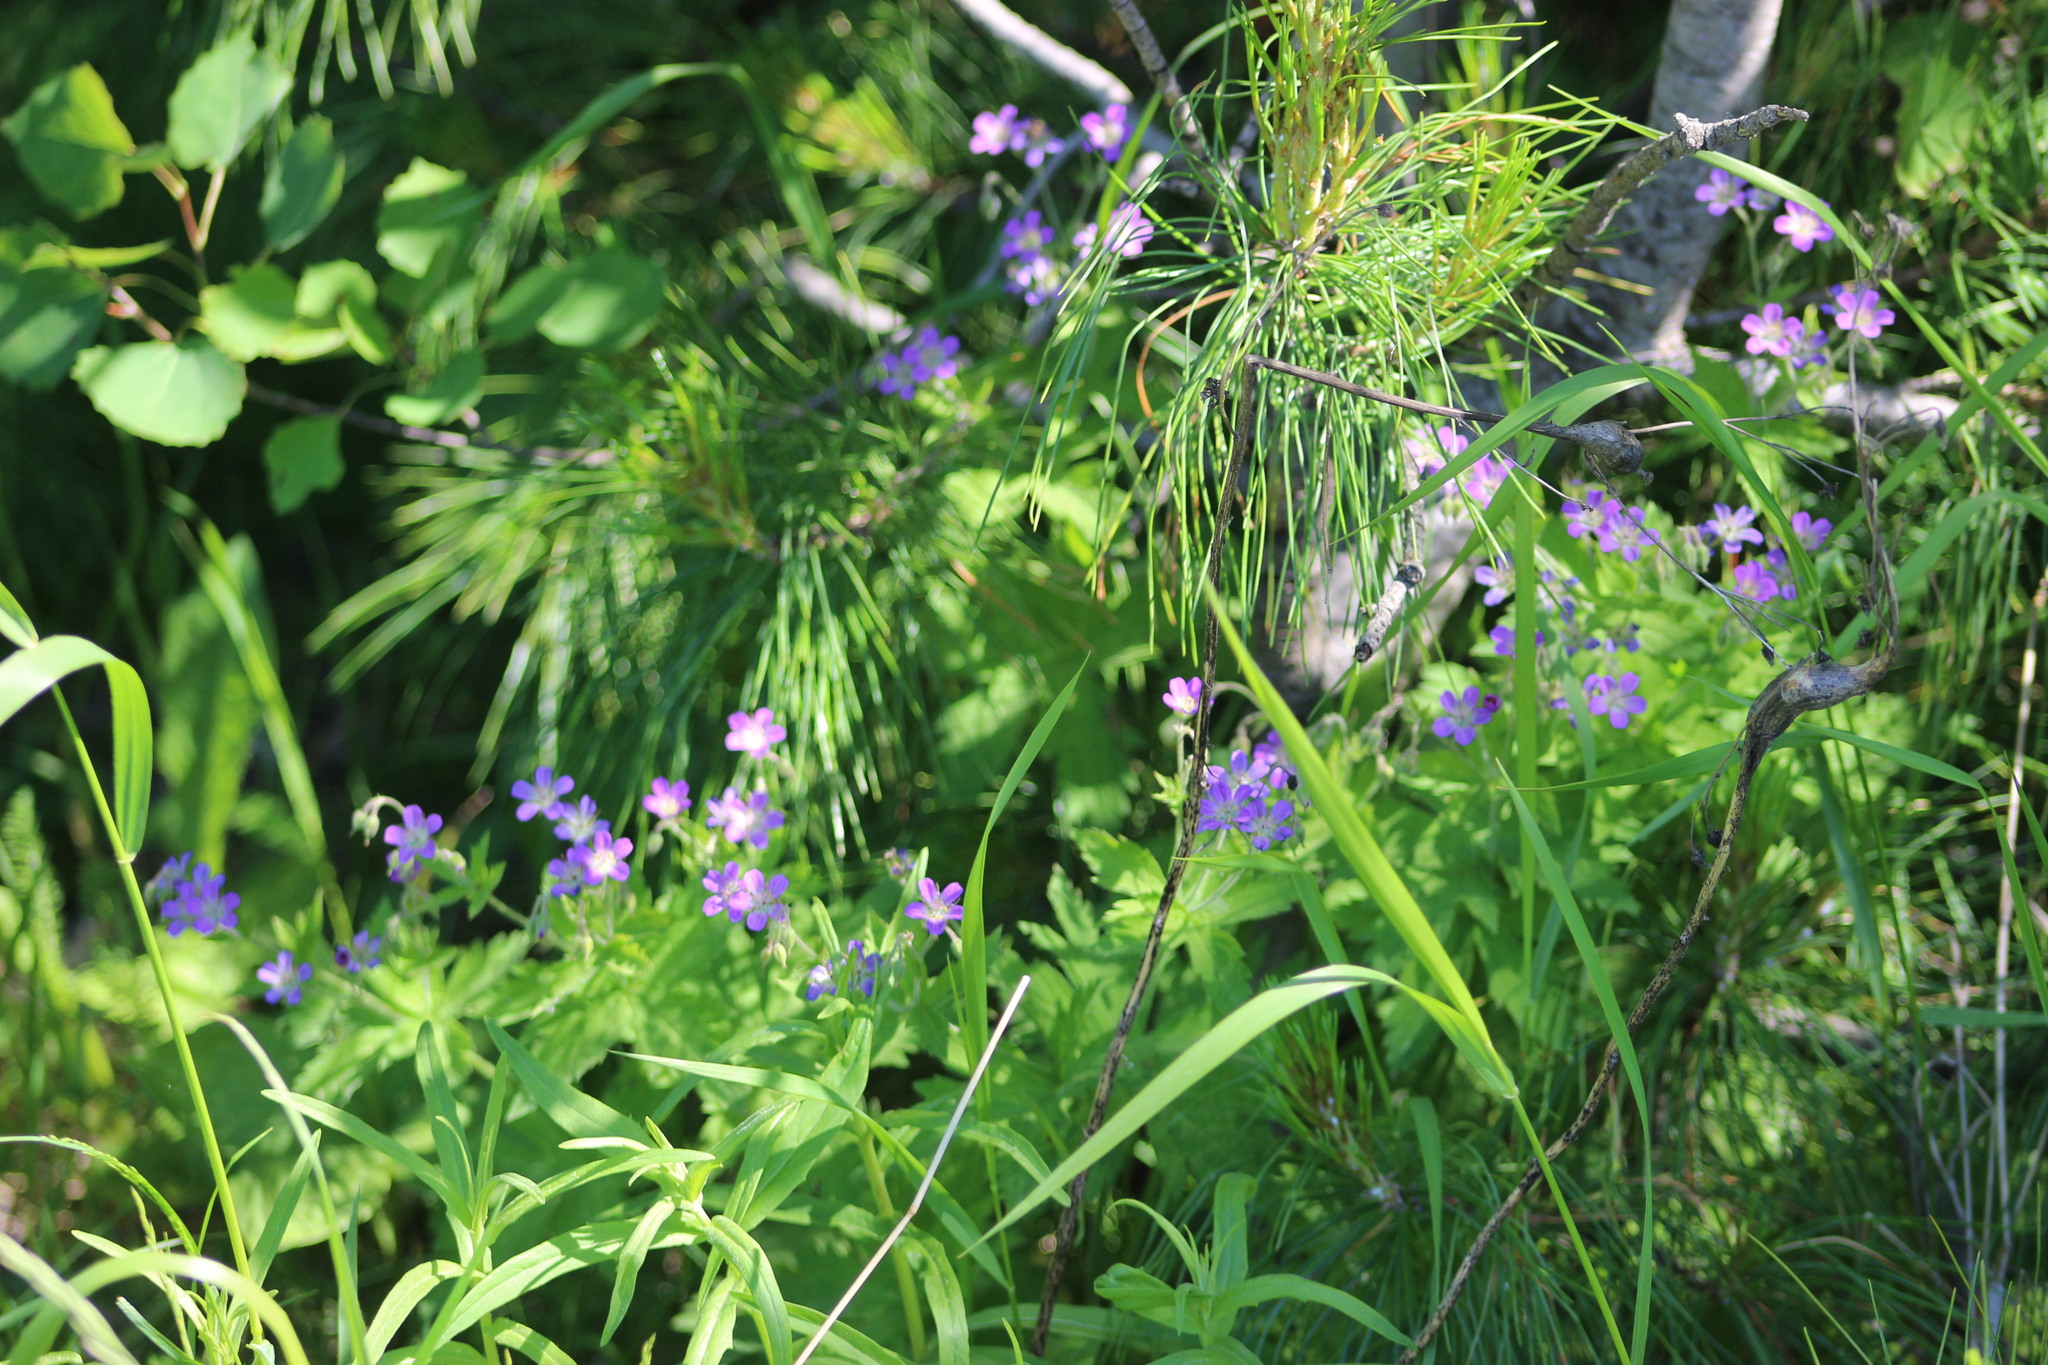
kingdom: Plantae
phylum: Tracheophyta
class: Magnoliopsida
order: Geraniales
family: Geraniaceae
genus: Geranium
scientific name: Geranium sylvaticum
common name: Wood crane's-bill
